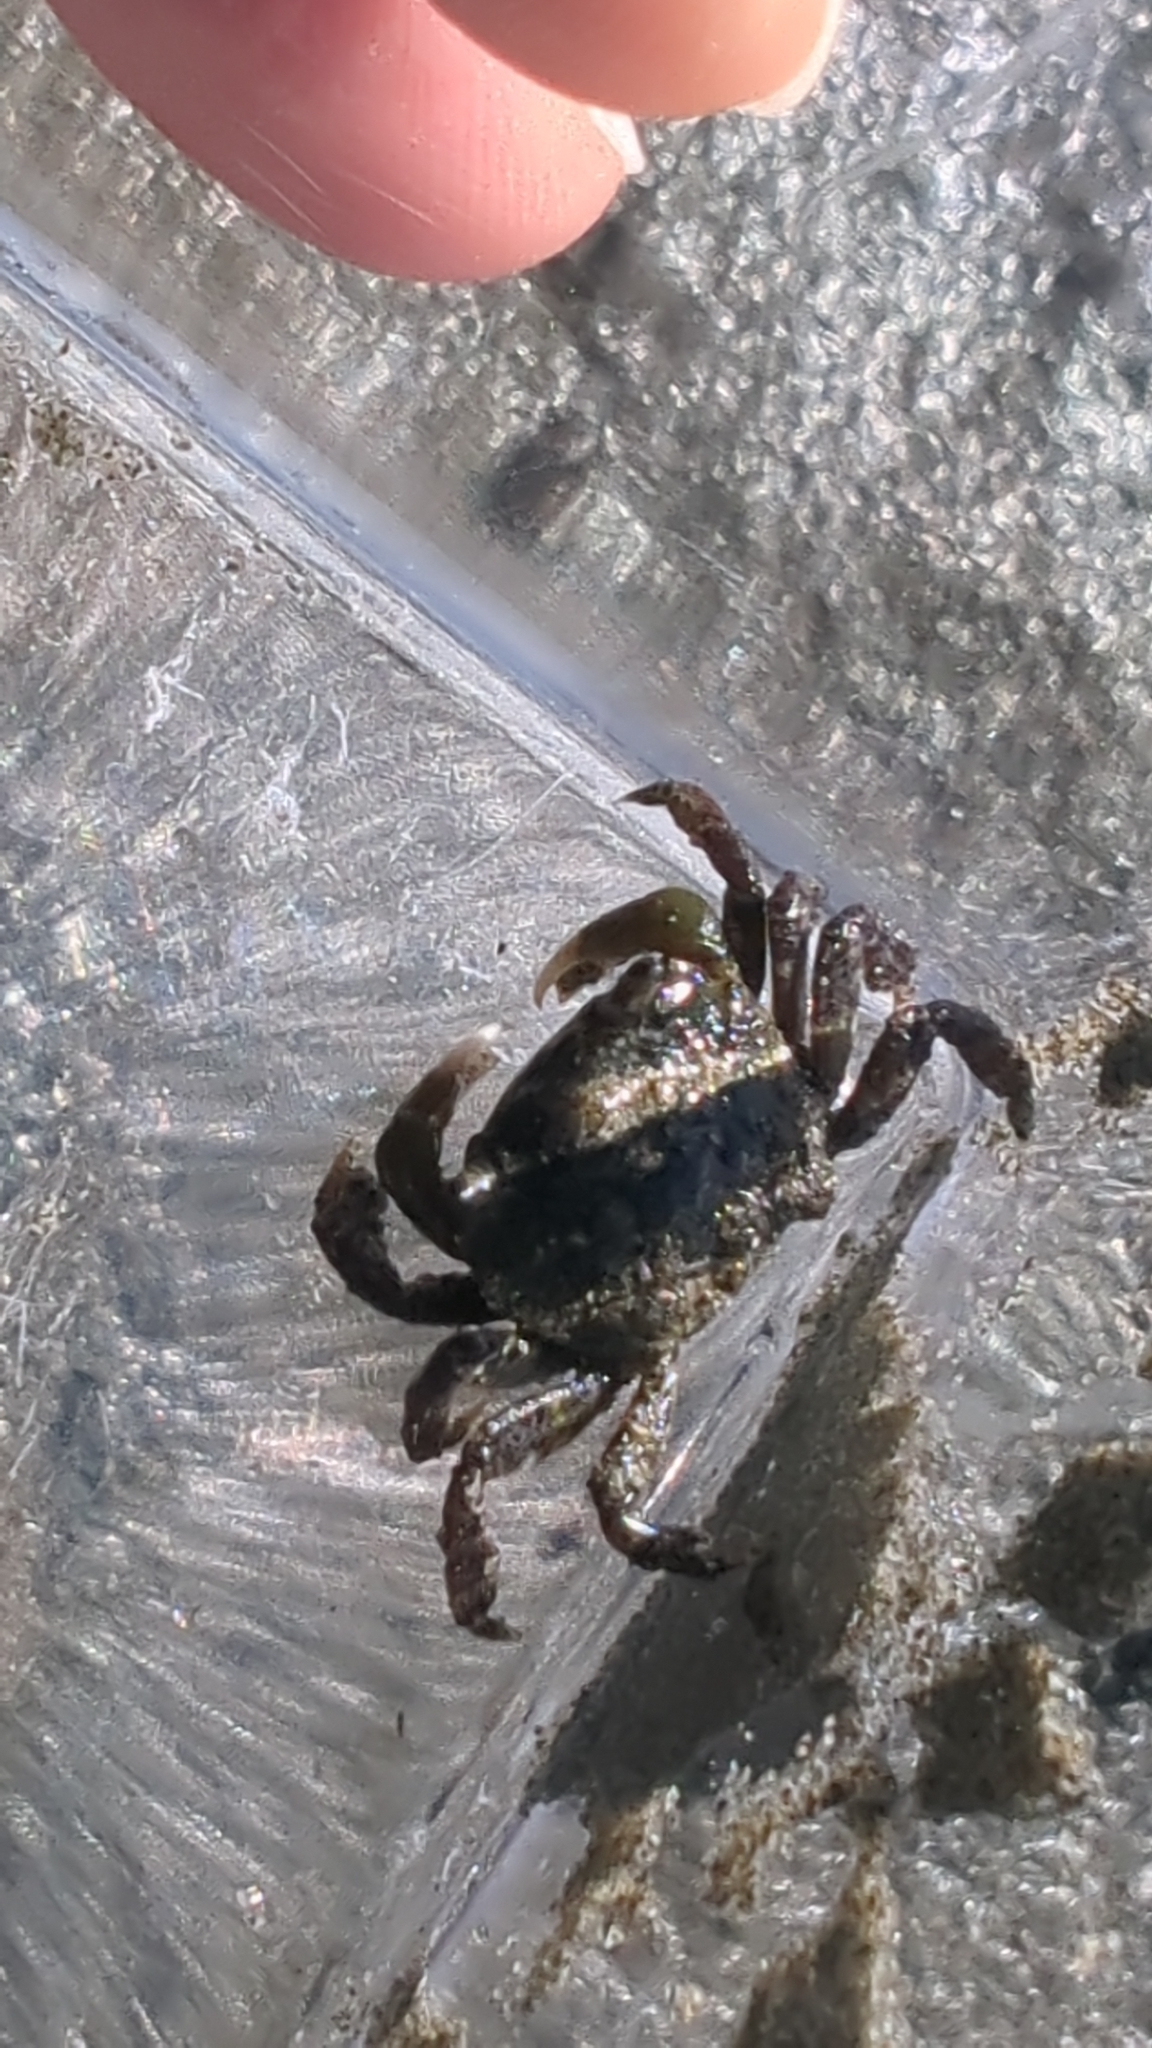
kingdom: Animalia
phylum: Arthropoda
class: Malacostraca
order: Decapoda
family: Varunidae
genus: Hemigrapsus
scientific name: Hemigrapsus oregonensis
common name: Yellow shore crab
